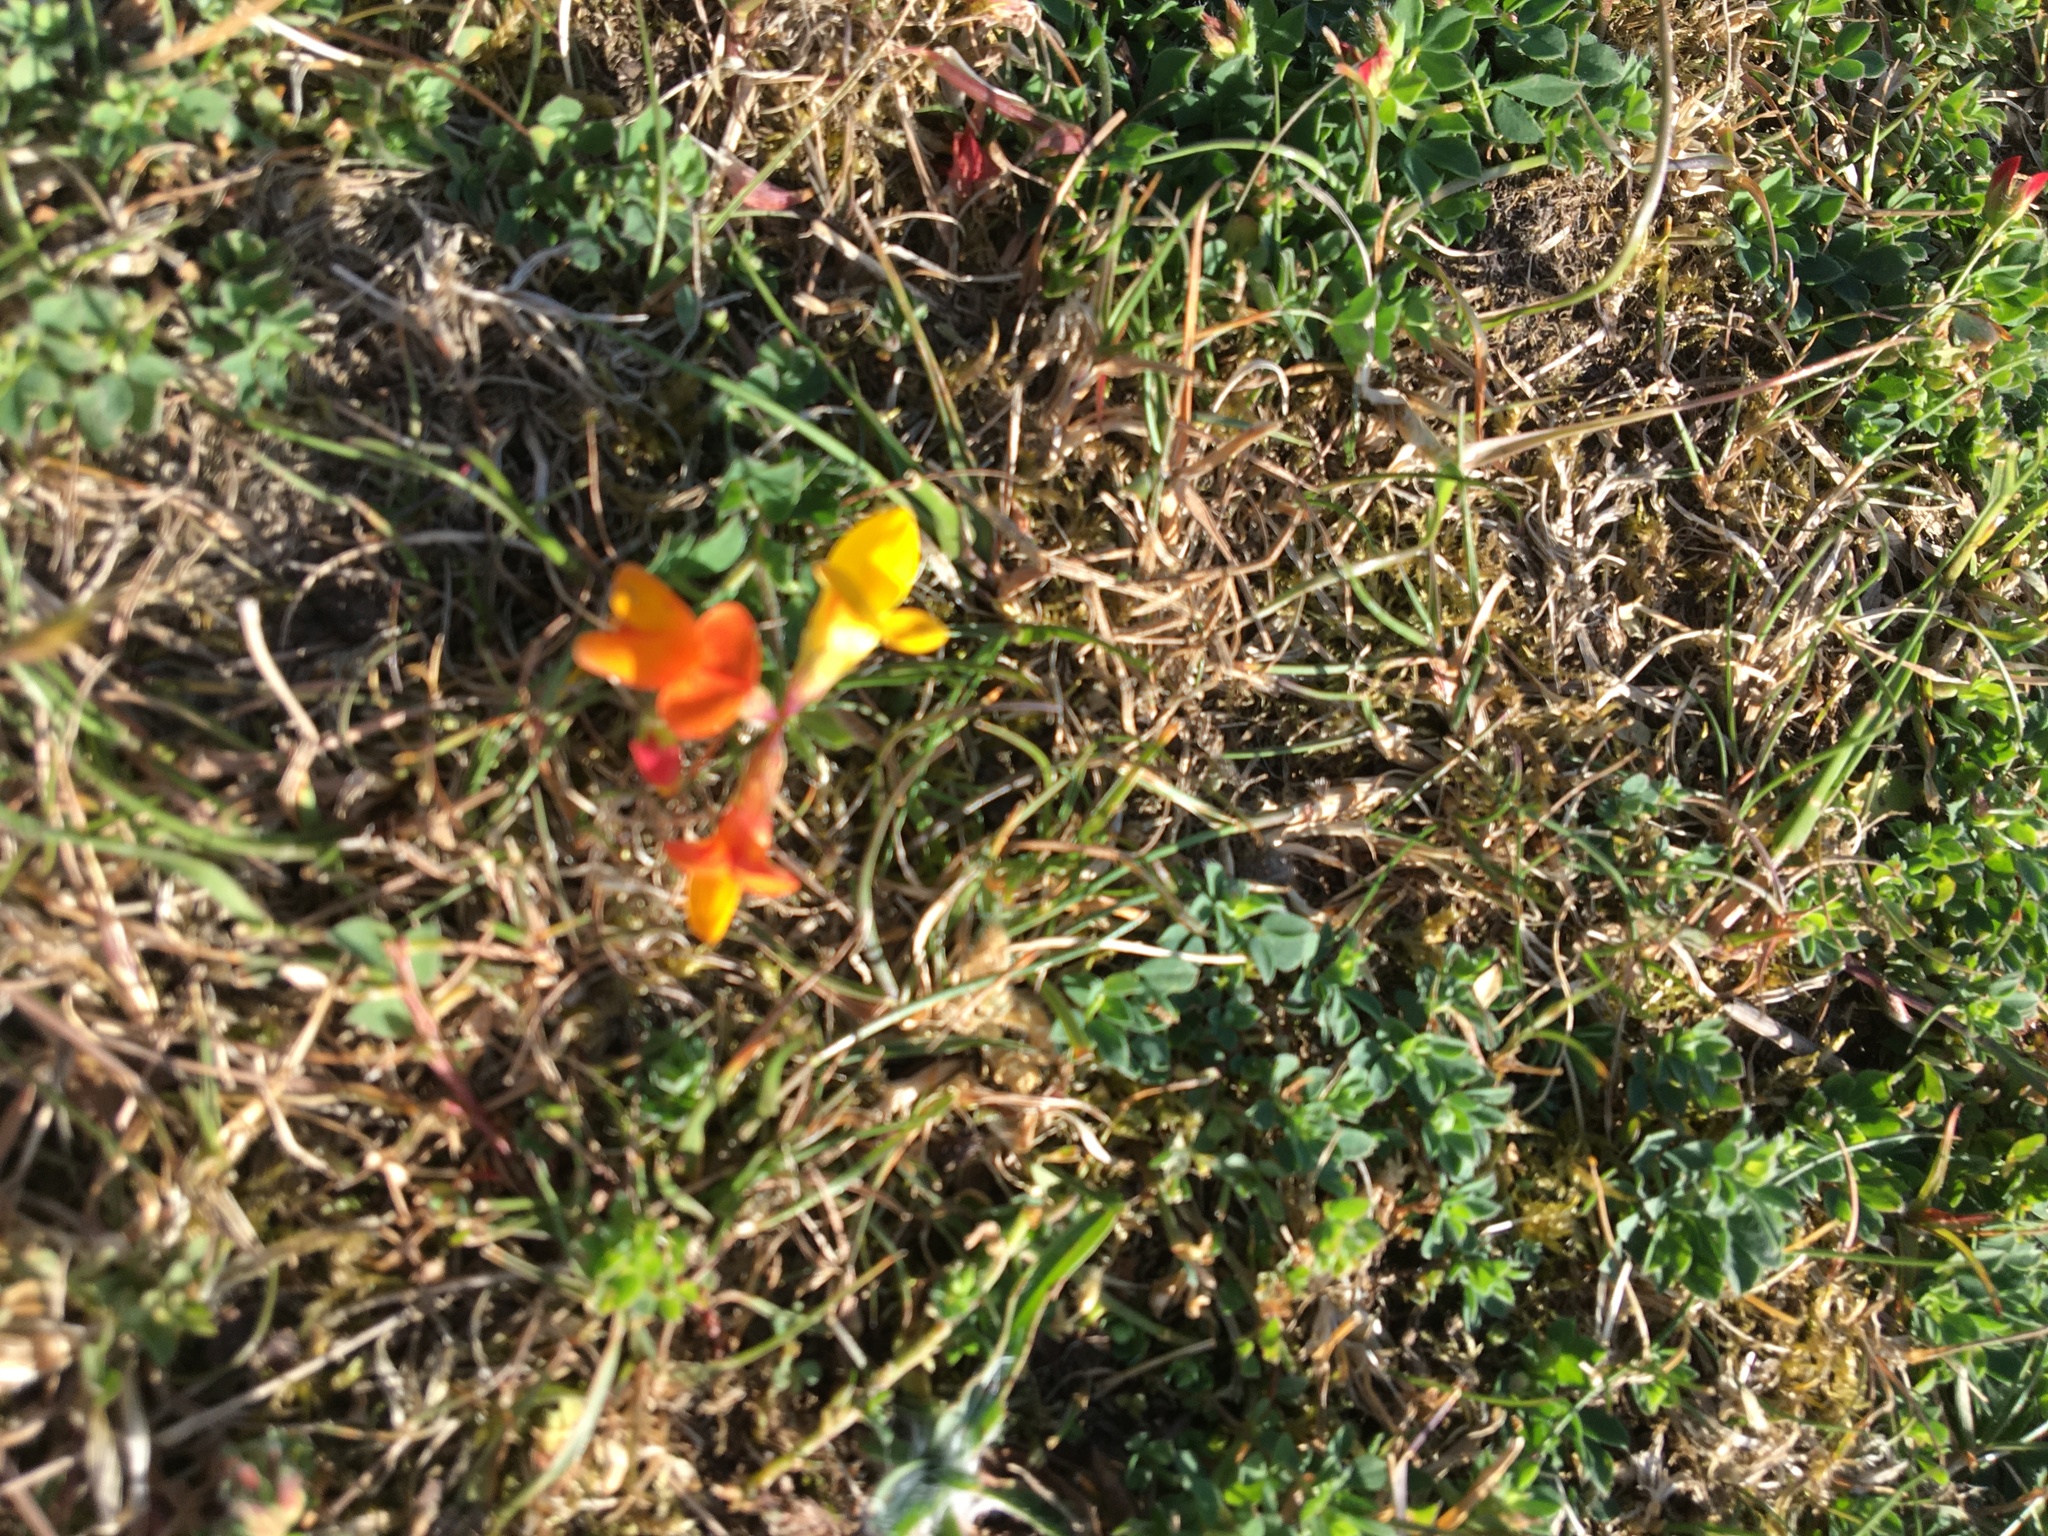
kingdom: Plantae
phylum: Tracheophyta
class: Magnoliopsida
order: Fabales
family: Fabaceae
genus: Lotus
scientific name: Lotus corniculatus
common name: Common bird's-foot-trefoil
